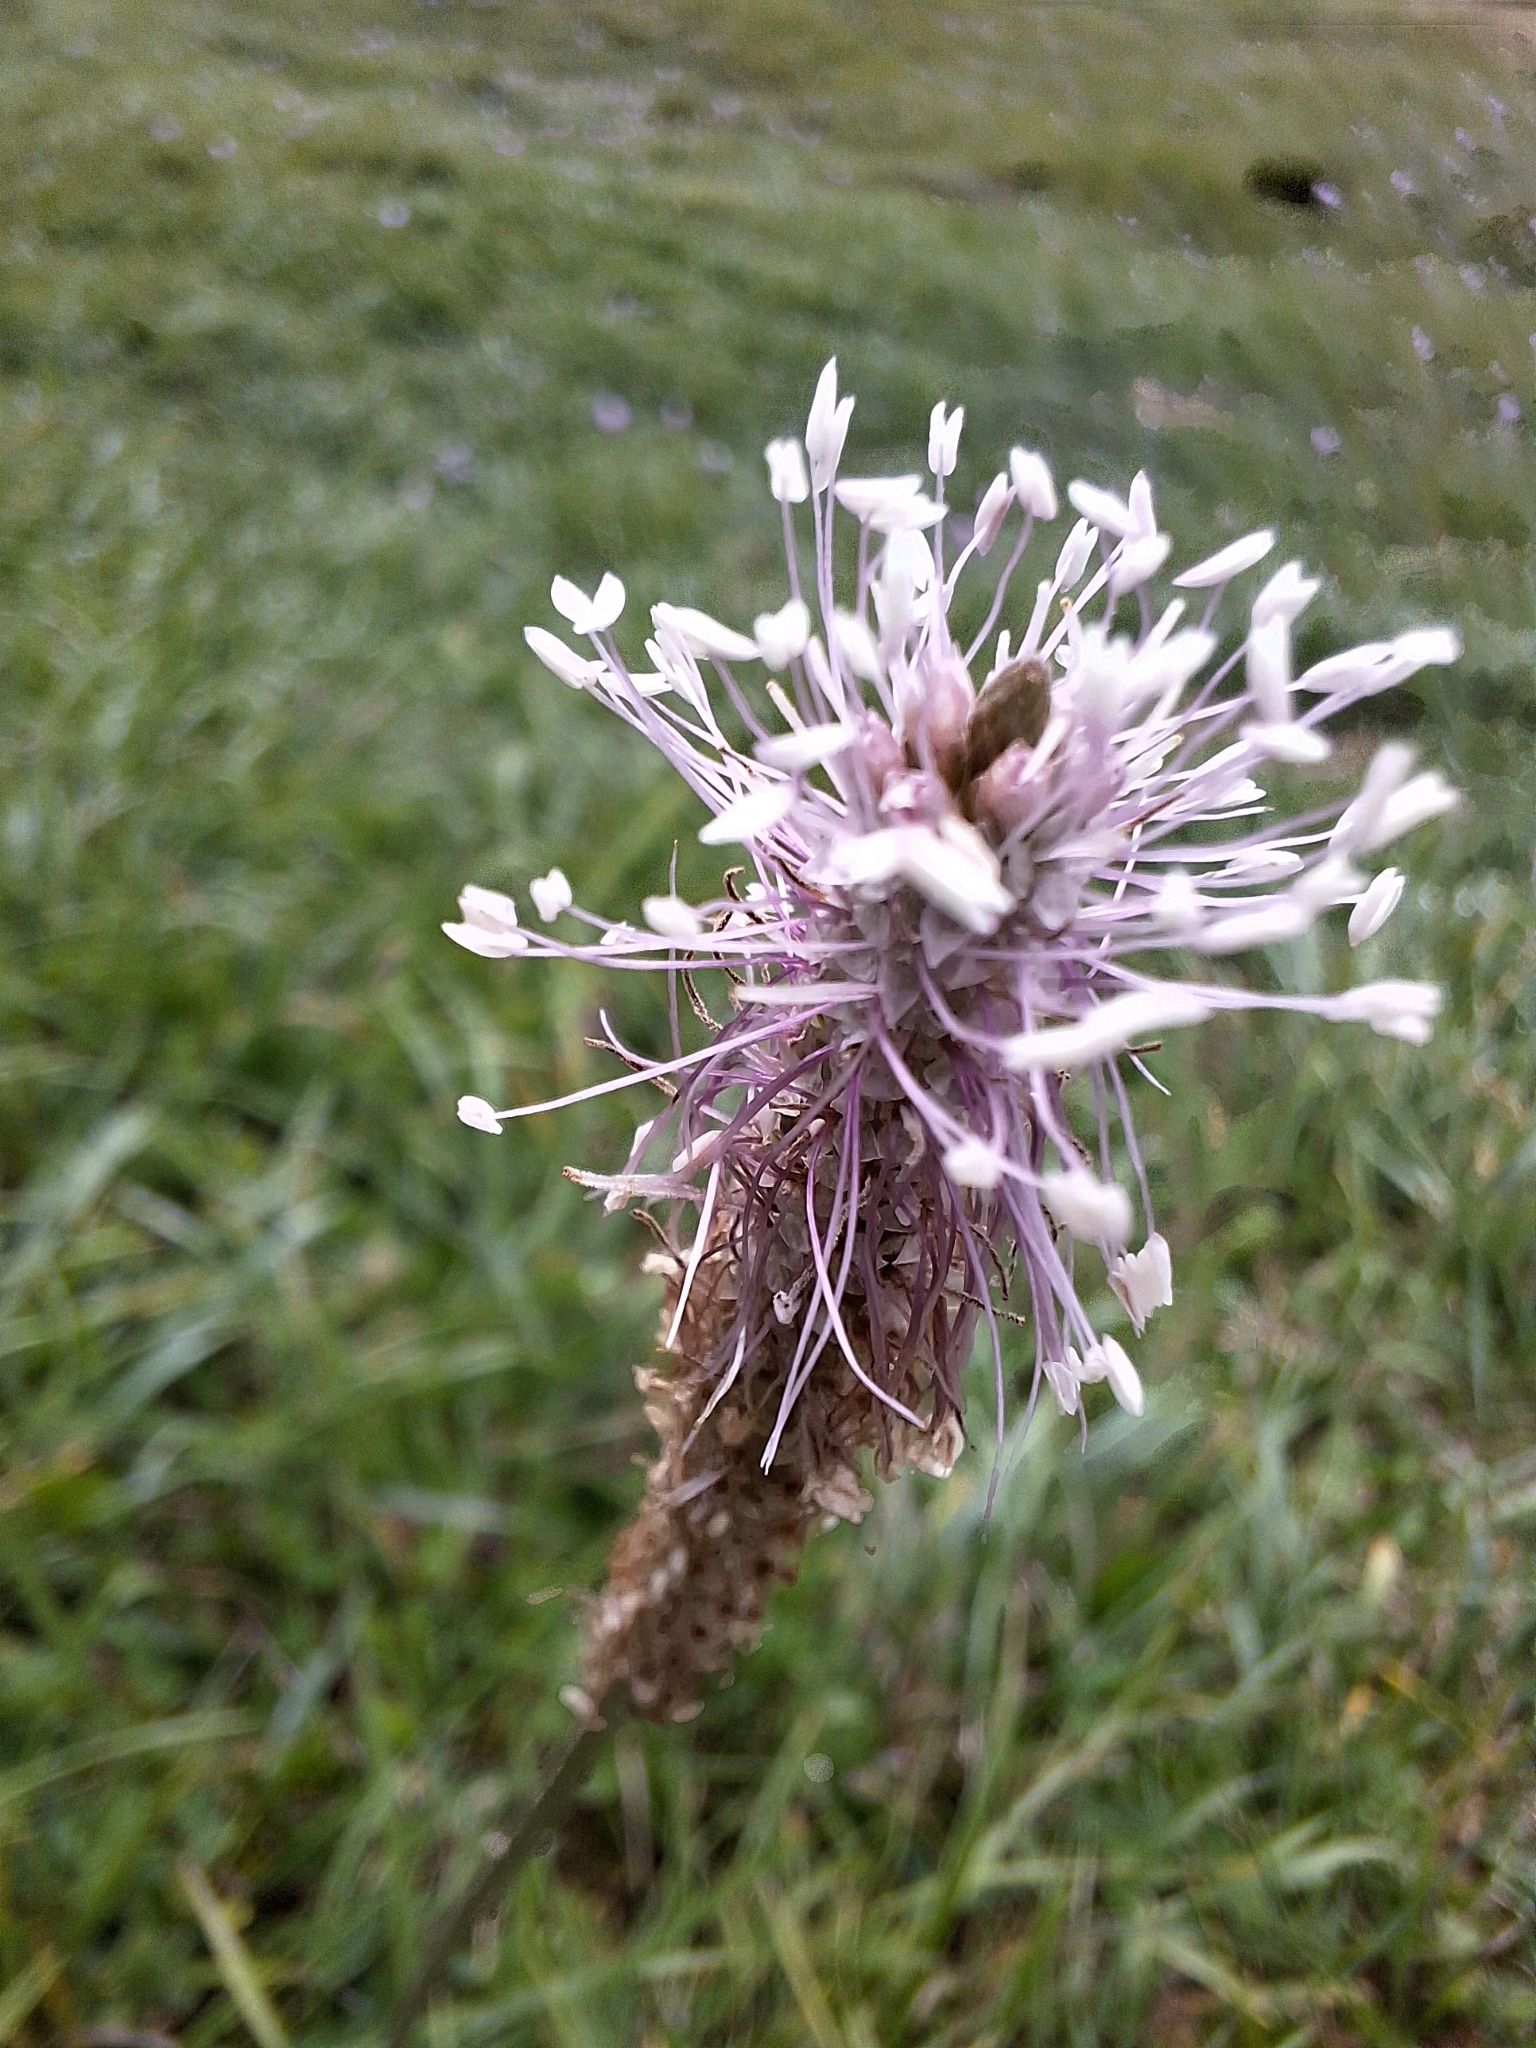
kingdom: Plantae
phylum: Tracheophyta
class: Magnoliopsida
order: Lamiales
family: Plantaginaceae
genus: Plantago
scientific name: Plantago media
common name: Hoary plantain
